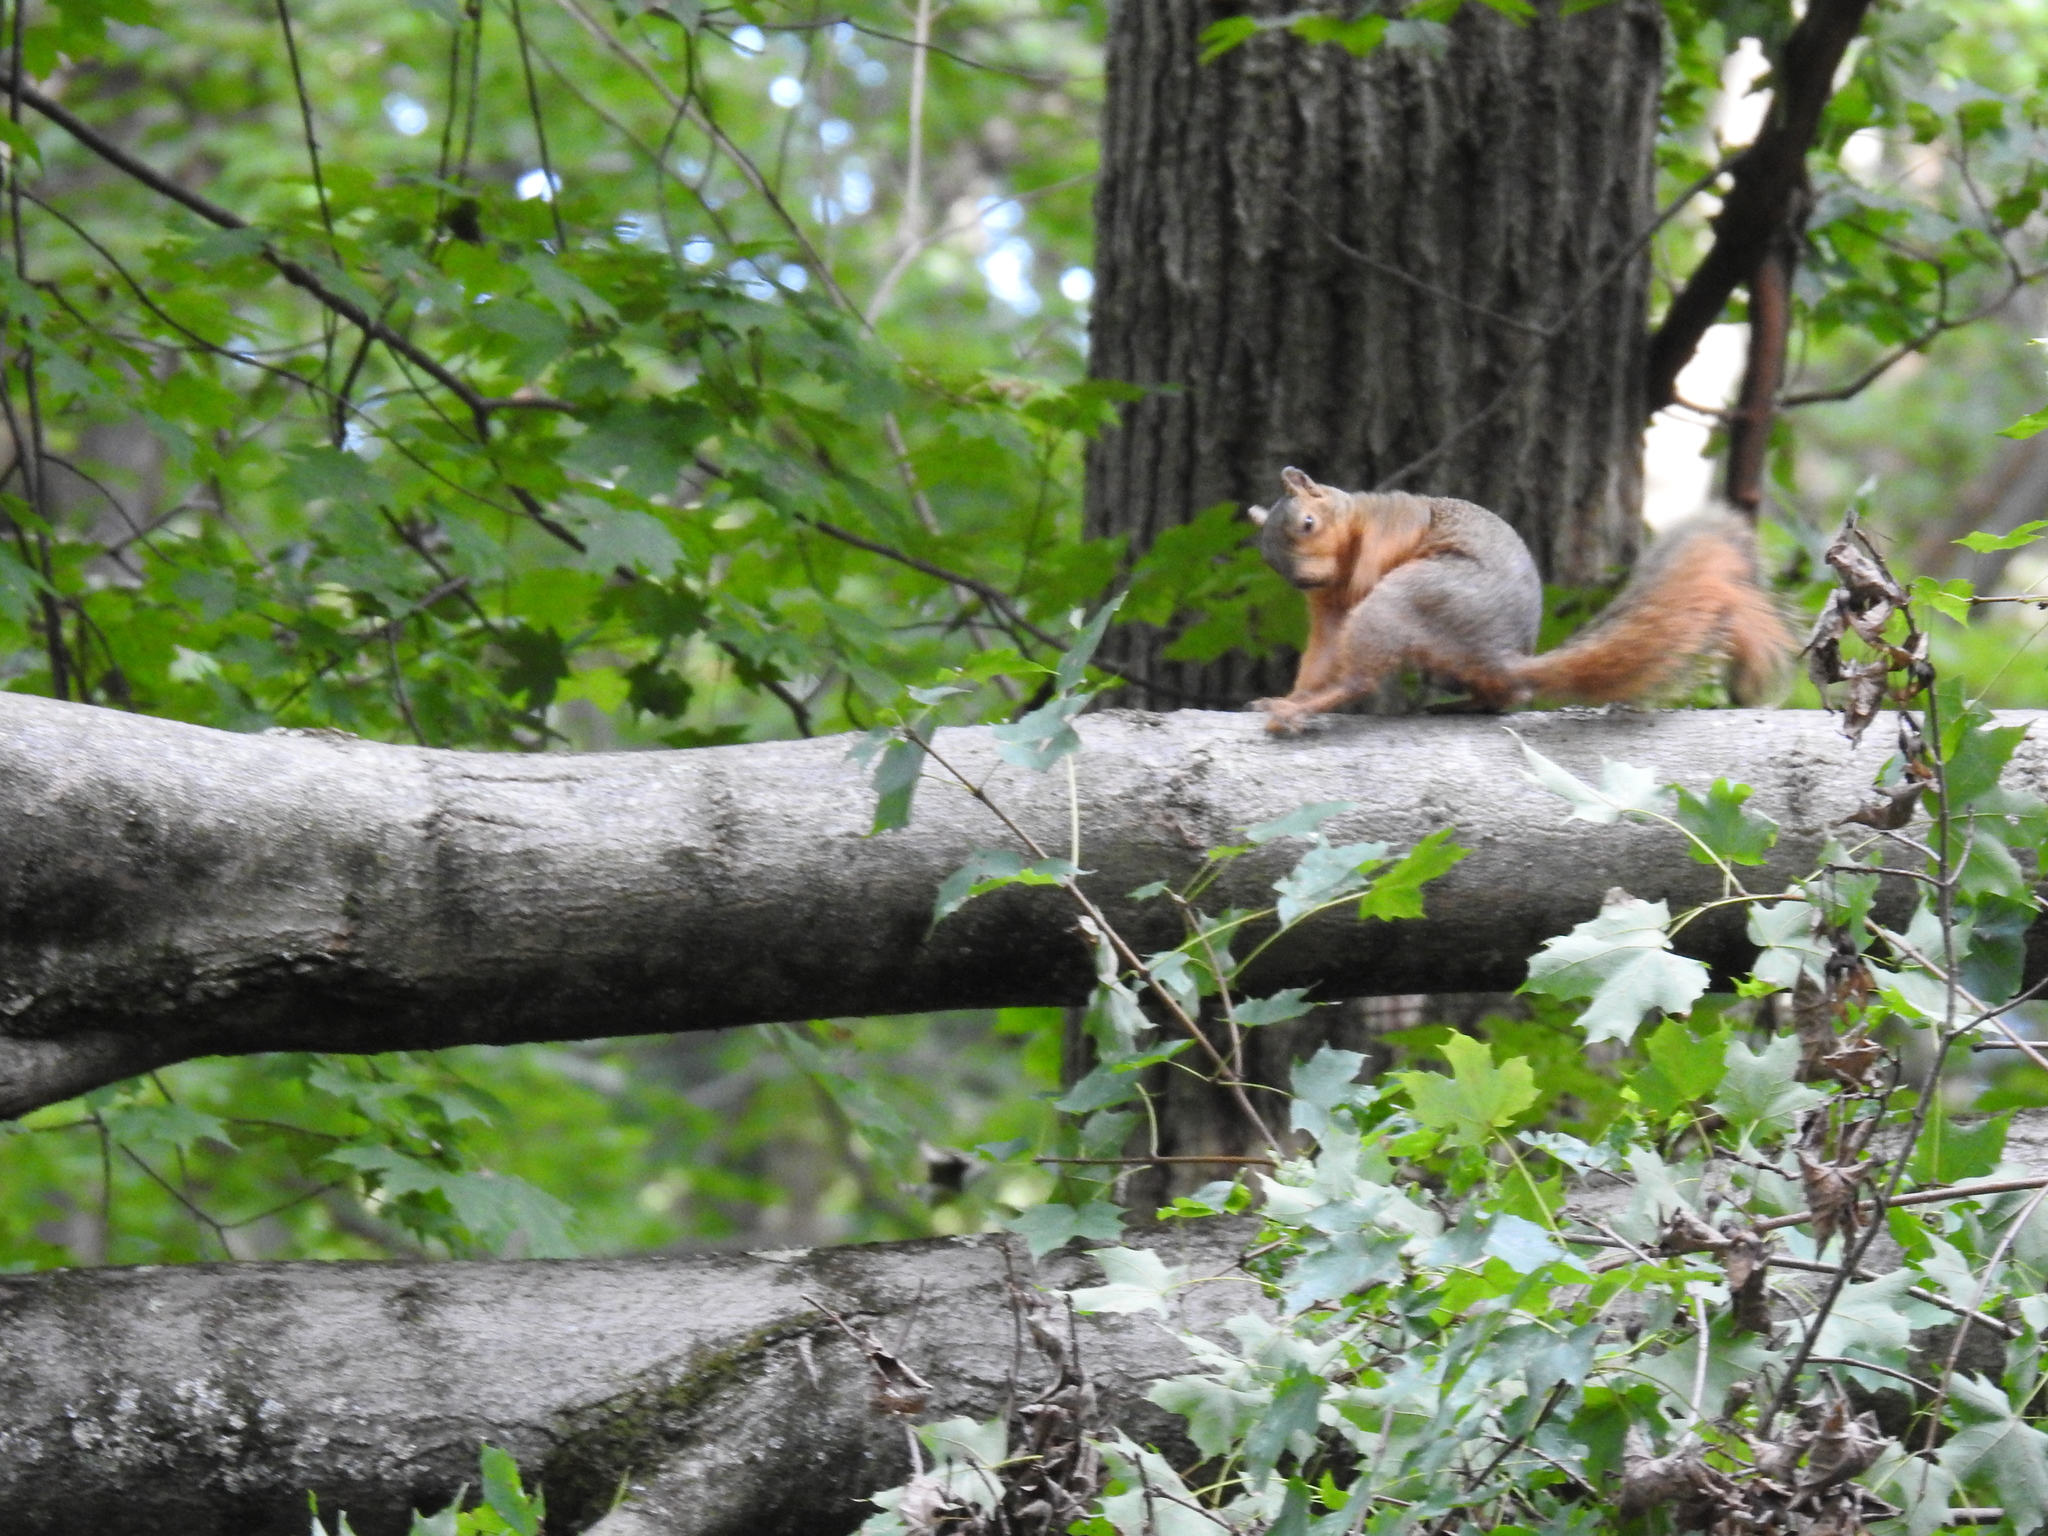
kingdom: Animalia
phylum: Chordata
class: Mammalia
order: Rodentia
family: Sciuridae
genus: Sciurus
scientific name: Sciurus niger
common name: Fox squirrel
